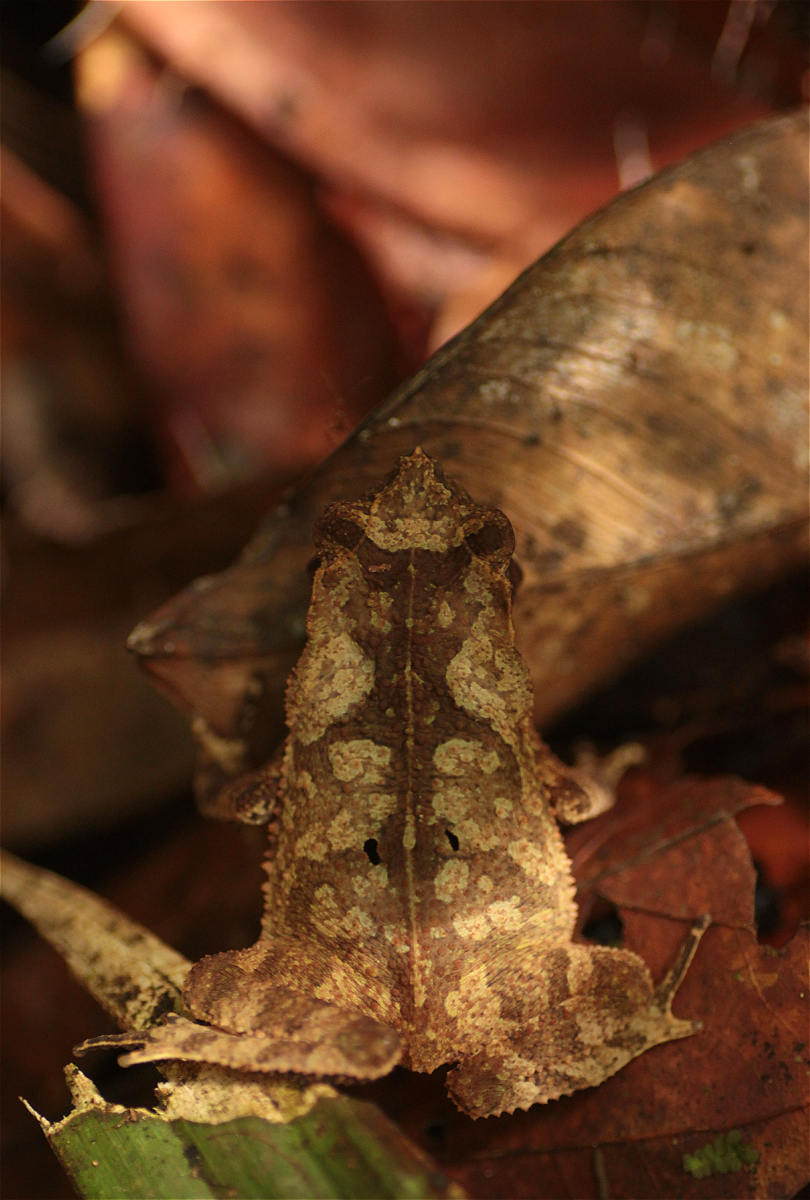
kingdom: Animalia
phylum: Chordata
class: Amphibia
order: Anura
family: Bufonidae
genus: Rhinella
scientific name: Rhinella margaritifera
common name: Mitred toad
